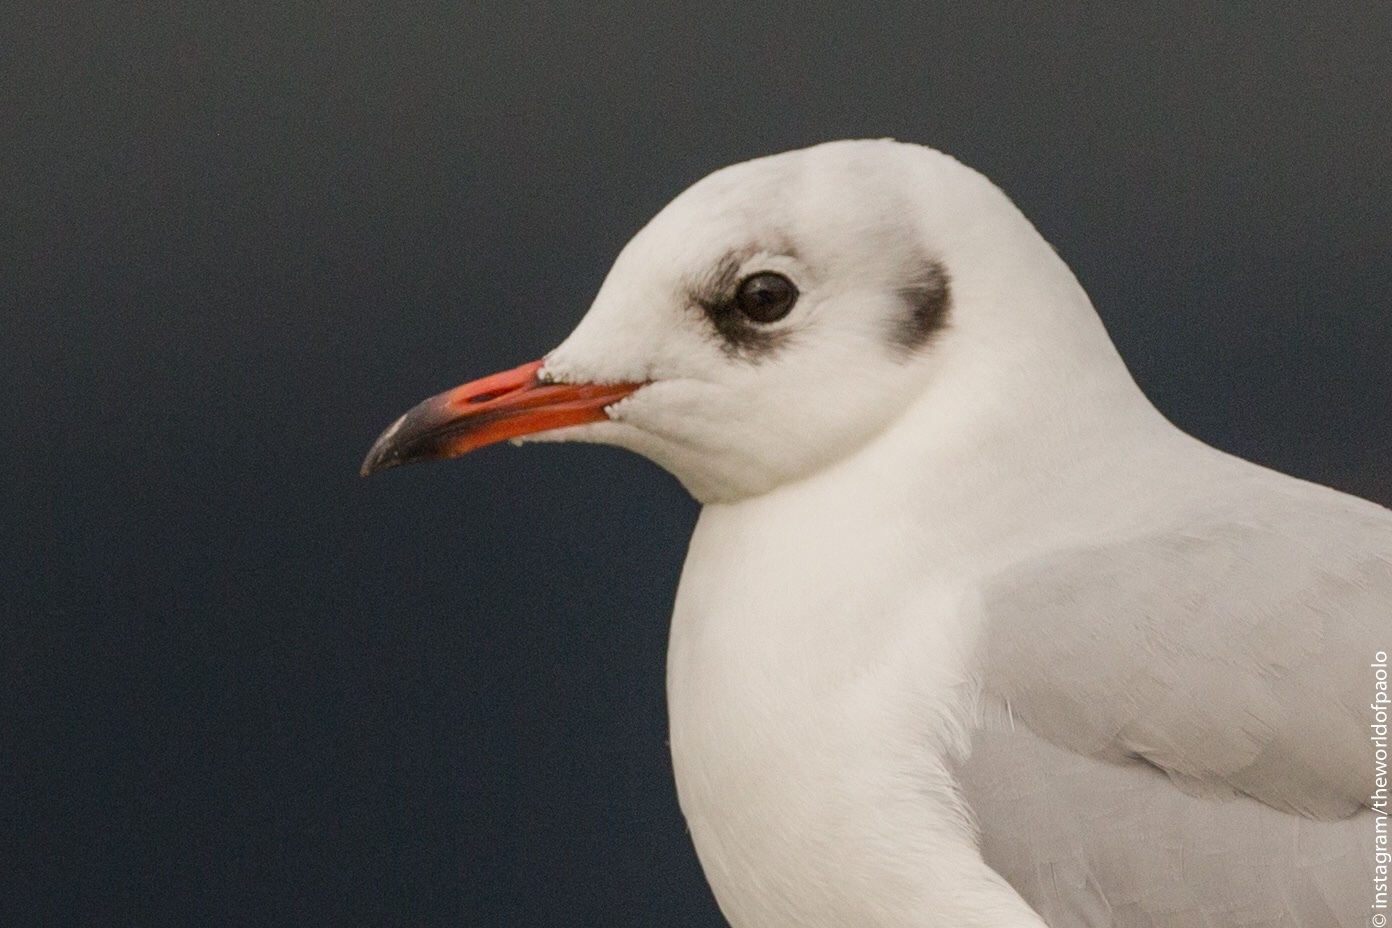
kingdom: Animalia
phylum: Chordata
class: Aves
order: Charadriiformes
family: Laridae
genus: Chroicocephalus
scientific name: Chroicocephalus ridibundus
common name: Black-headed gull
